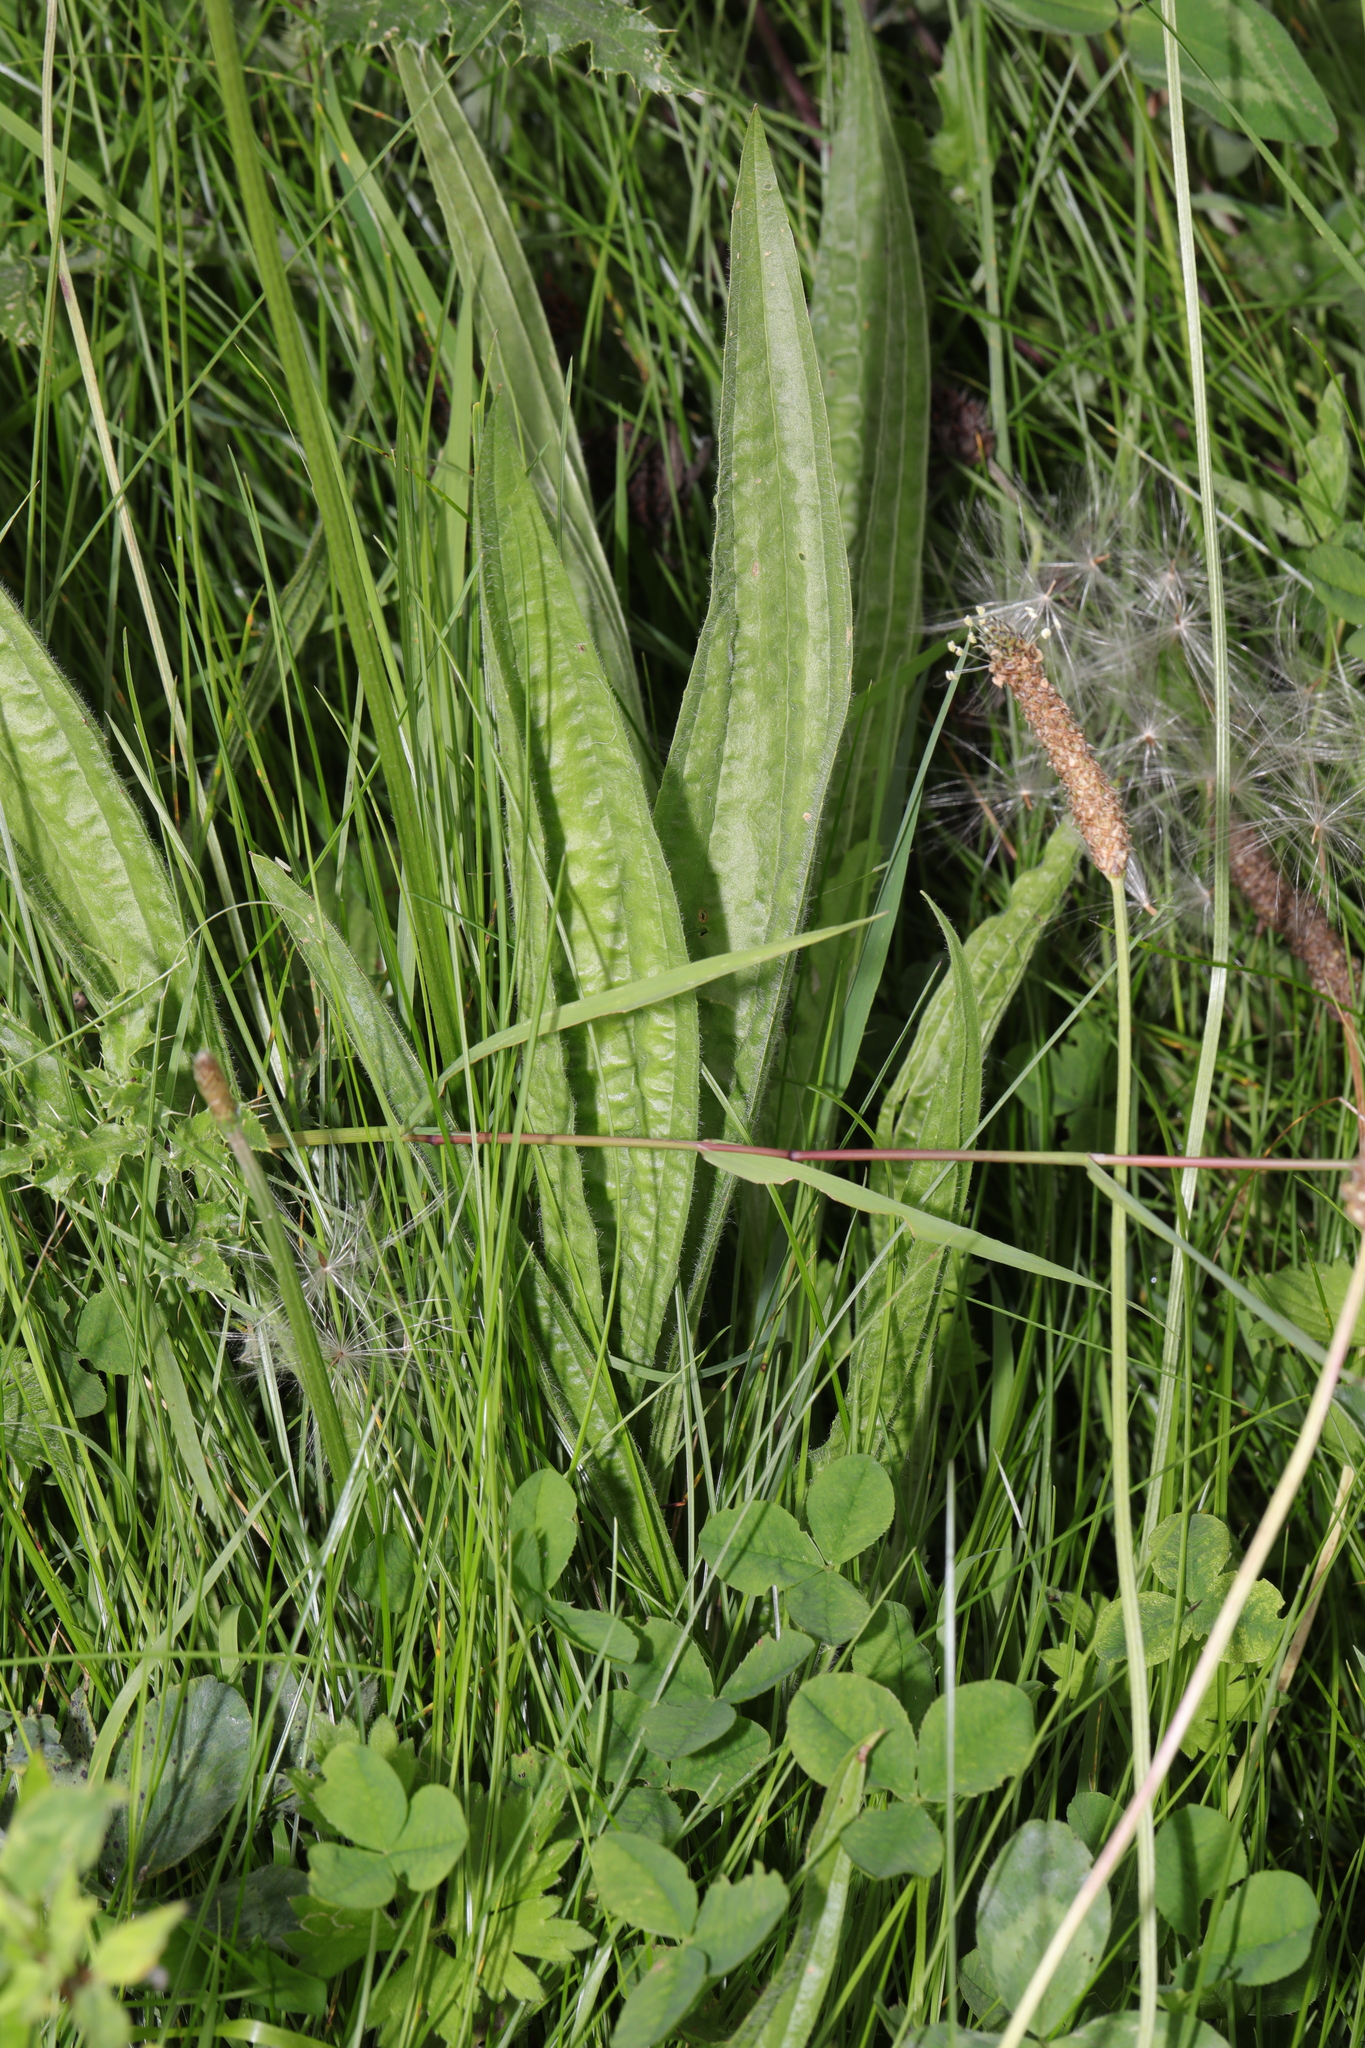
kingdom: Plantae
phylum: Tracheophyta
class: Magnoliopsida
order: Lamiales
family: Plantaginaceae
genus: Plantago
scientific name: Plantago lanceolata
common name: Ribwort plantain
